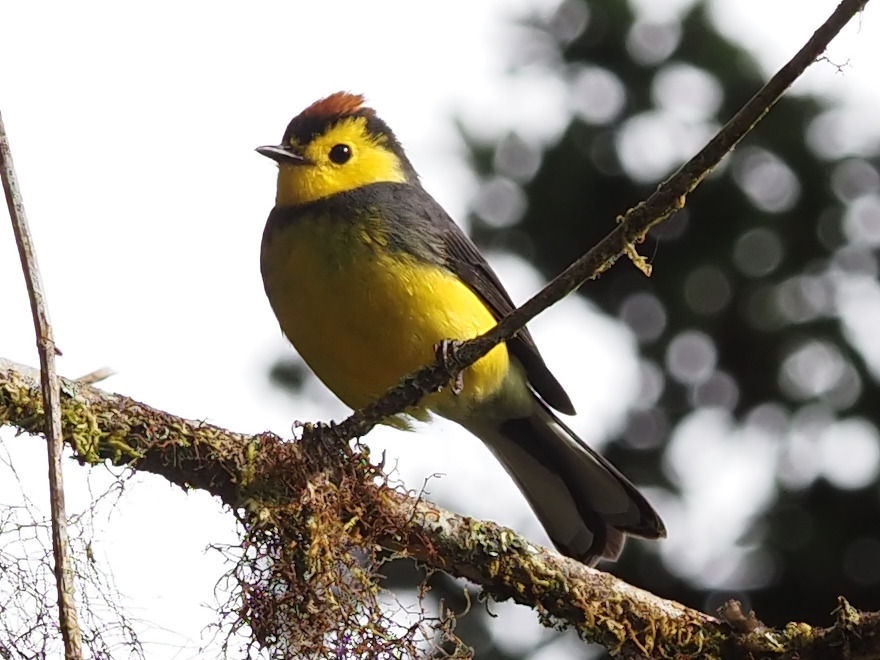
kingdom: Animalia
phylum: Chordata
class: Aves
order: Passeriformes
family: Parulidae
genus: Myioborus
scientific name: Myioborus torquatus
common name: Collared whitestart
